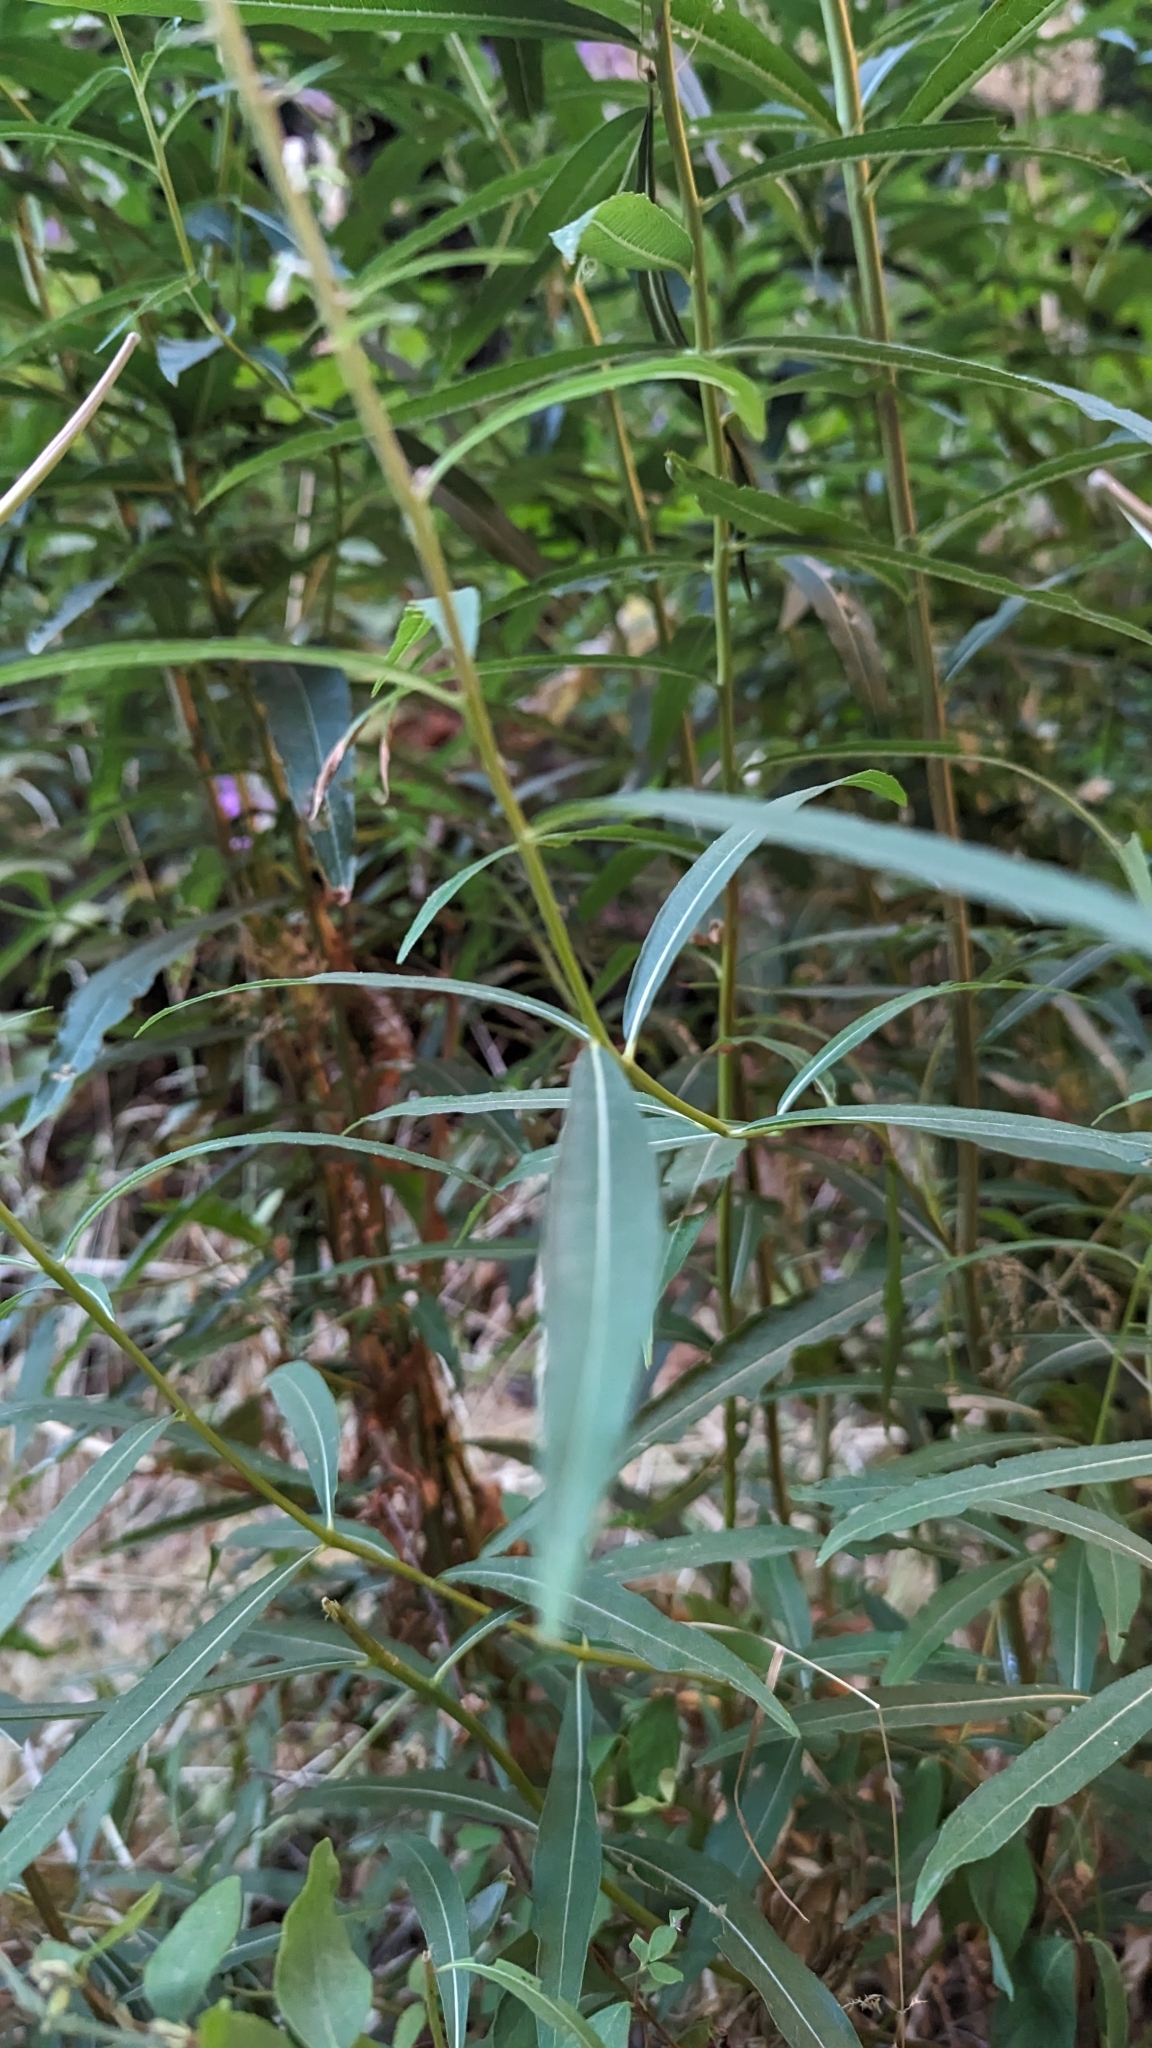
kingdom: Plantae
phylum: Tracheophyta
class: Magnoliopsida
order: Myrtales
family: Onagraceae
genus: Chamaenerion
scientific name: Chamaenerion angustifolium
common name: Fireweed
